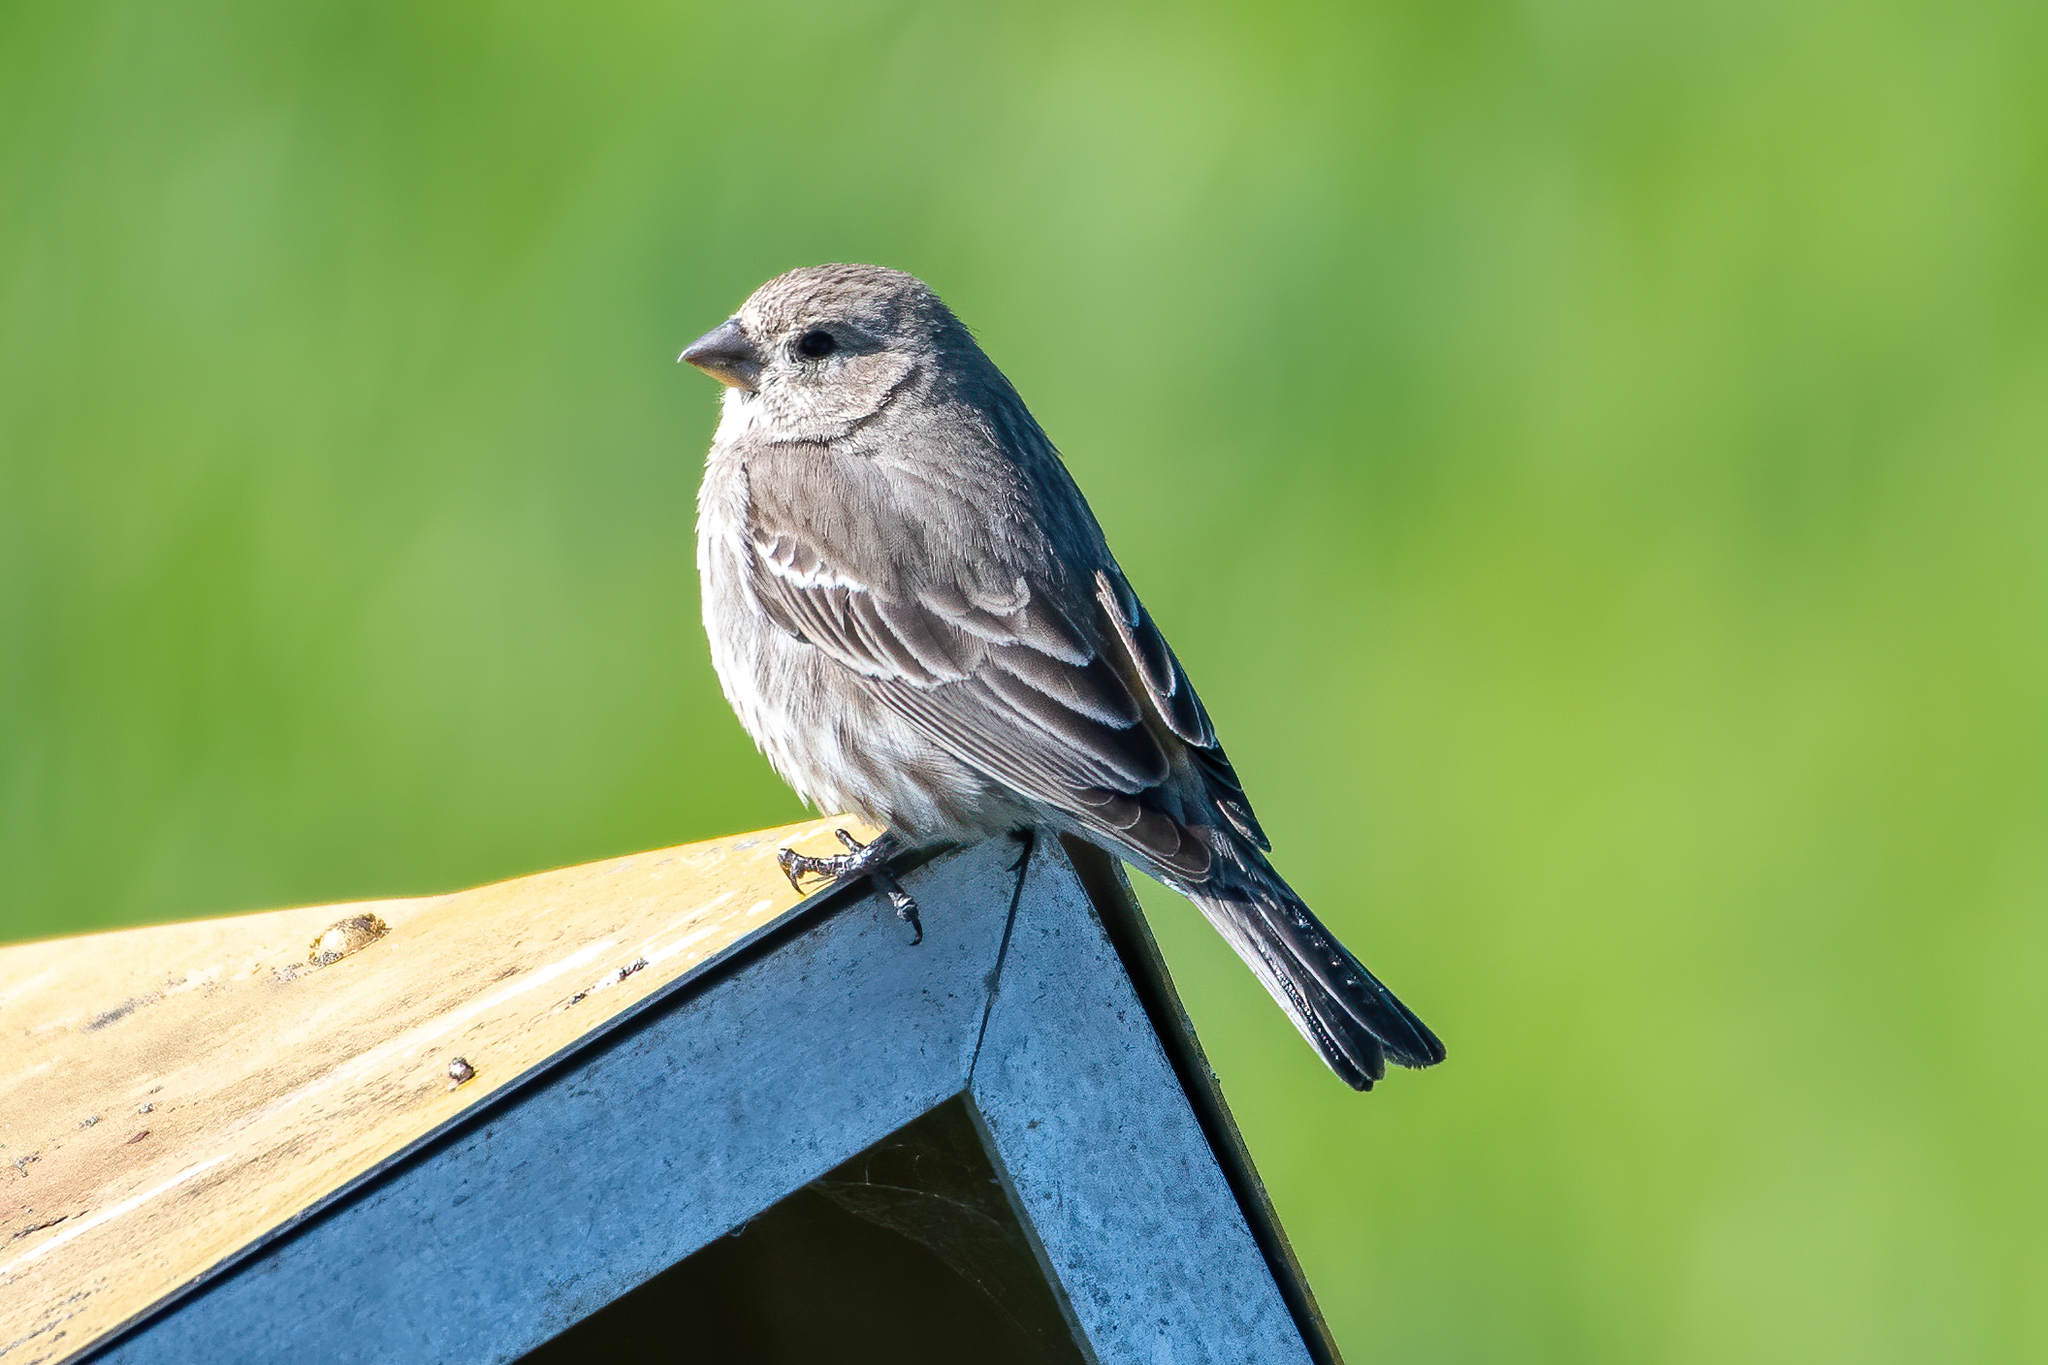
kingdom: Animalia
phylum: Chordata
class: Aves
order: Passeriformes
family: Fringillidae
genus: Haemorhous
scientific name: Haemorhous mexicanus
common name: House finch
